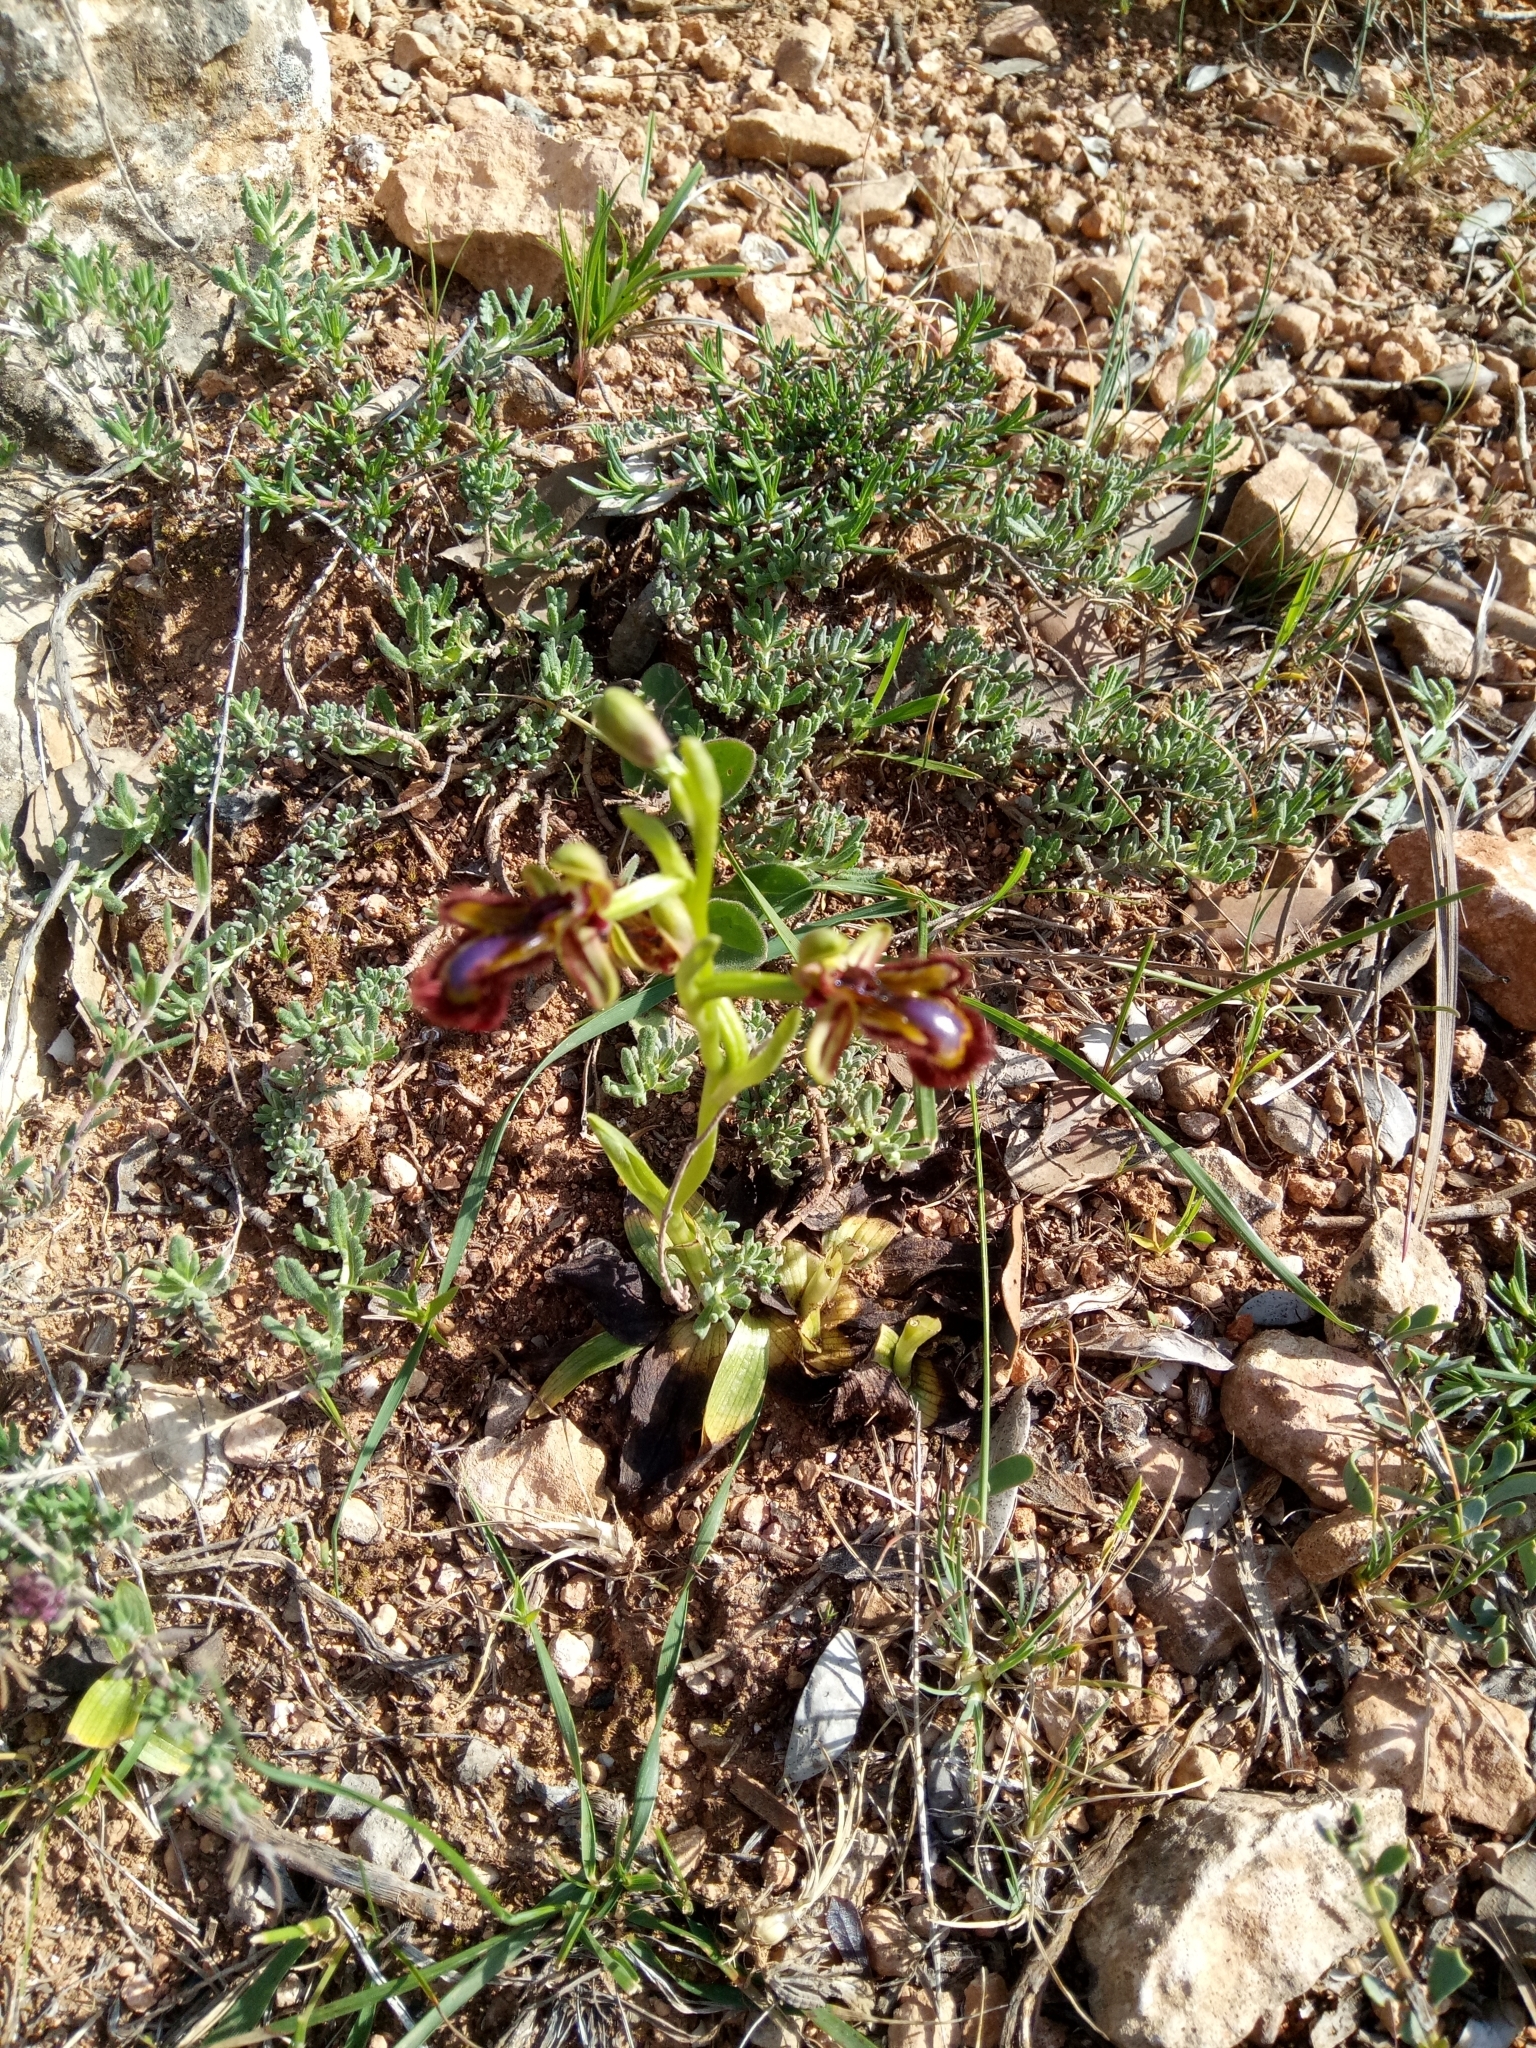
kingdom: Plantae
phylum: Tracheophyta
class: Liliopsida
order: Asparagales
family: Orchidaceae
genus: Ophrys
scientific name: Ophrys speculum
